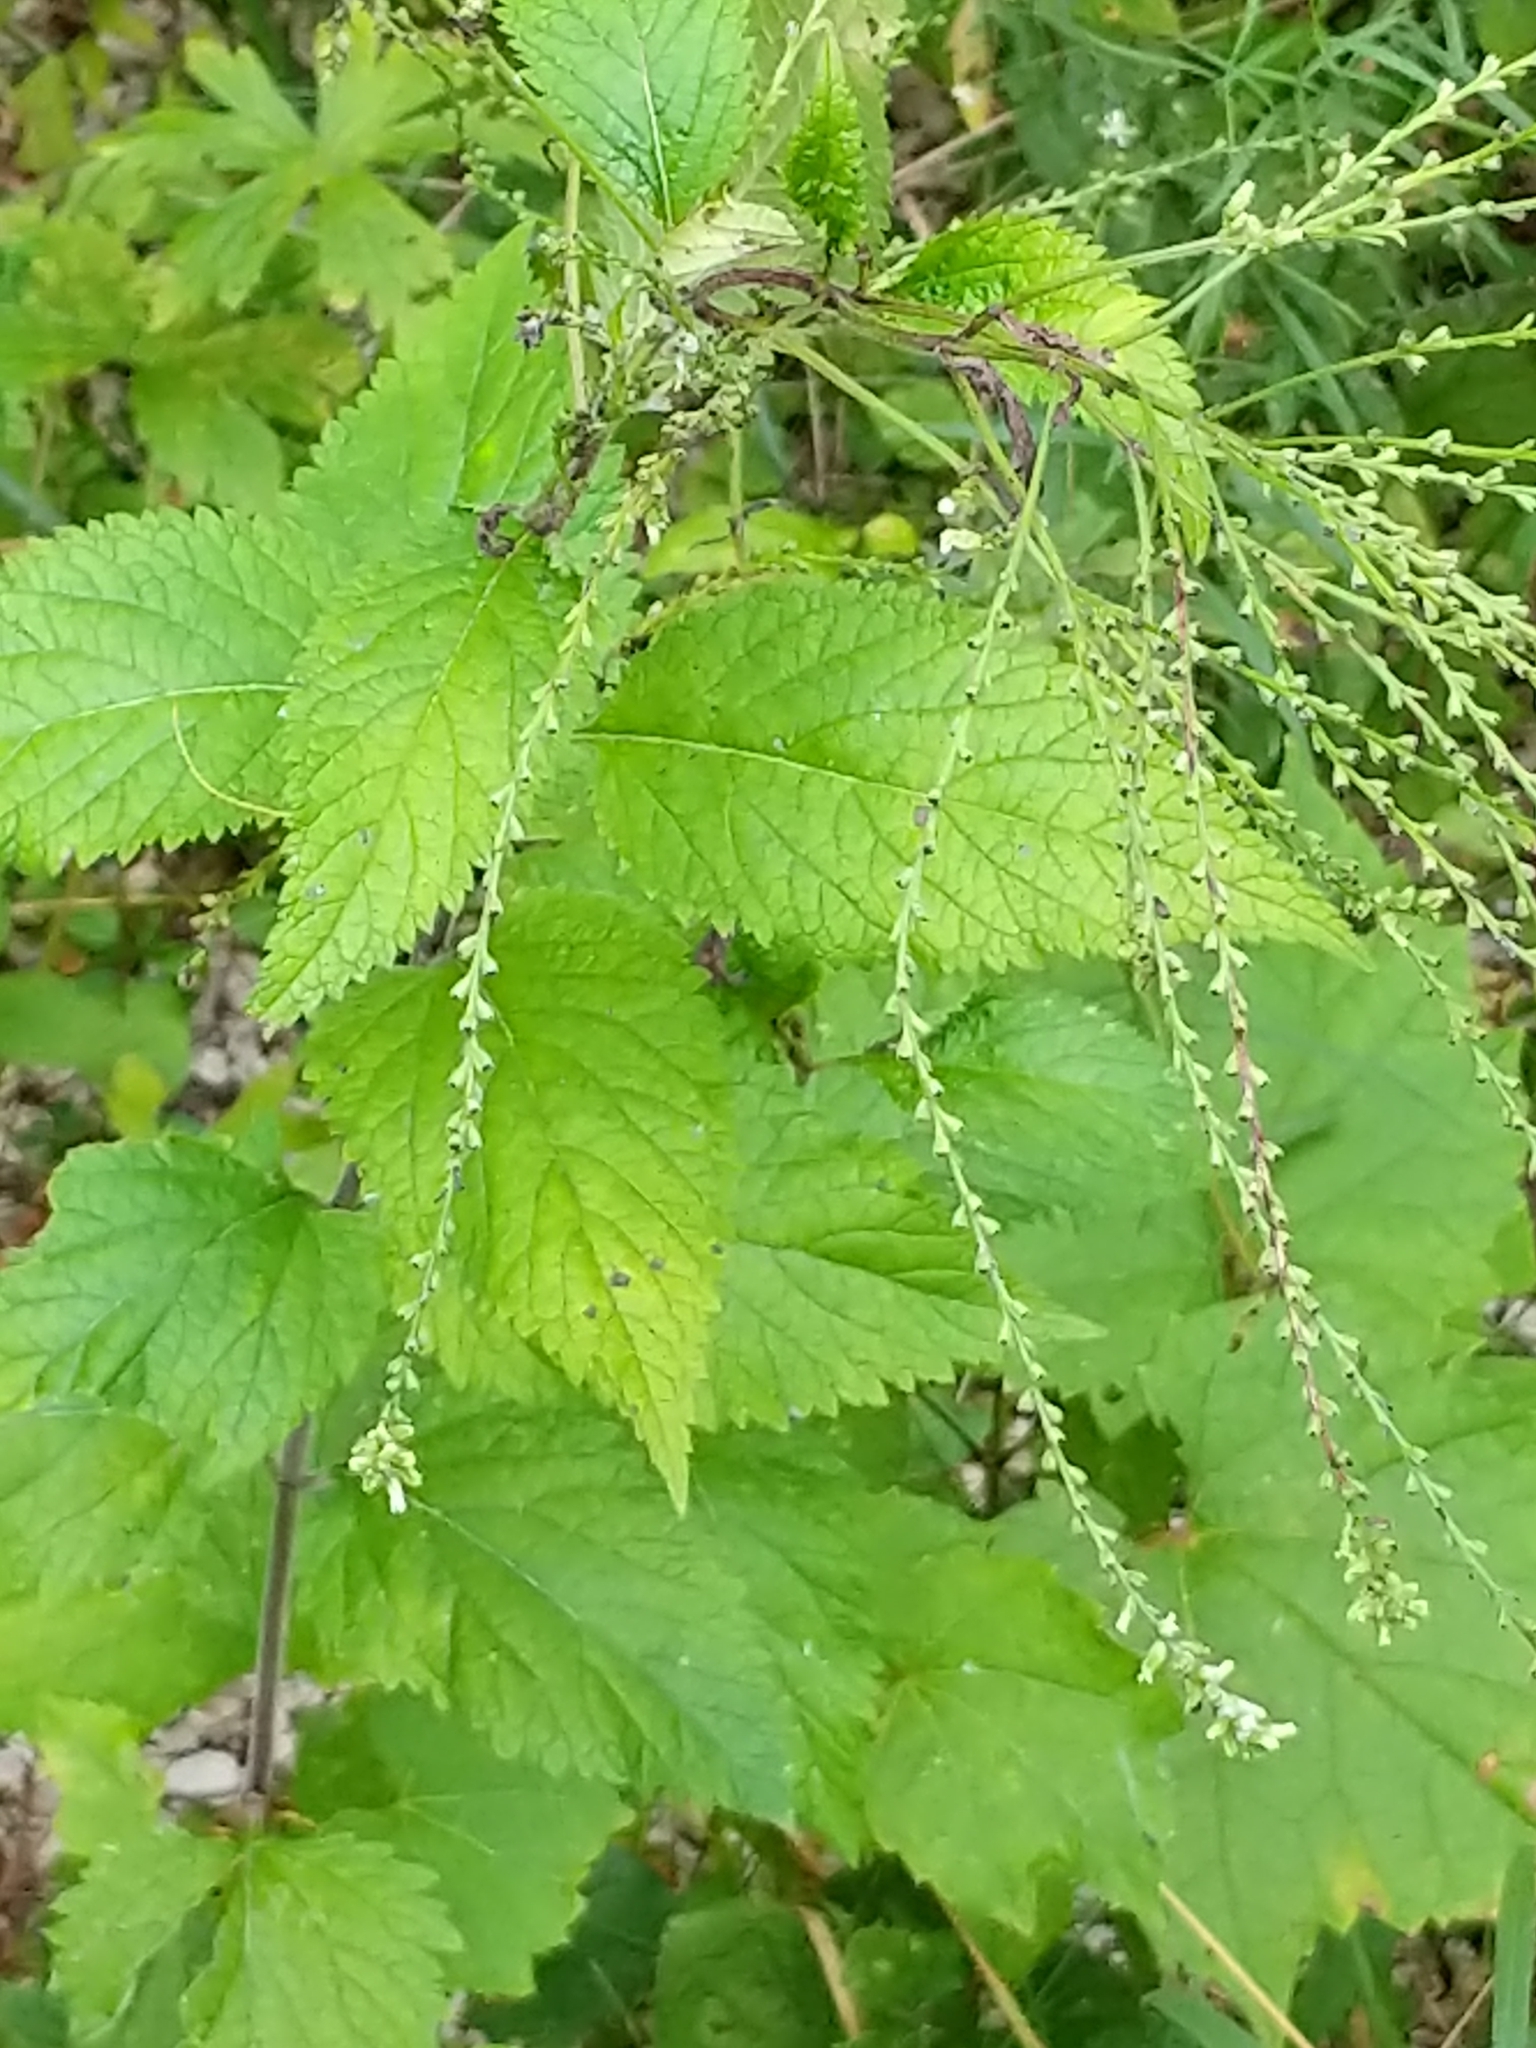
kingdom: Plantae
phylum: Tracheophyta
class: Magnoliopsida
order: Lamiales
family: Verbenaceae
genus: Verbena
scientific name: Verbena urticifolia
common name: Nettle-leaved vervain
